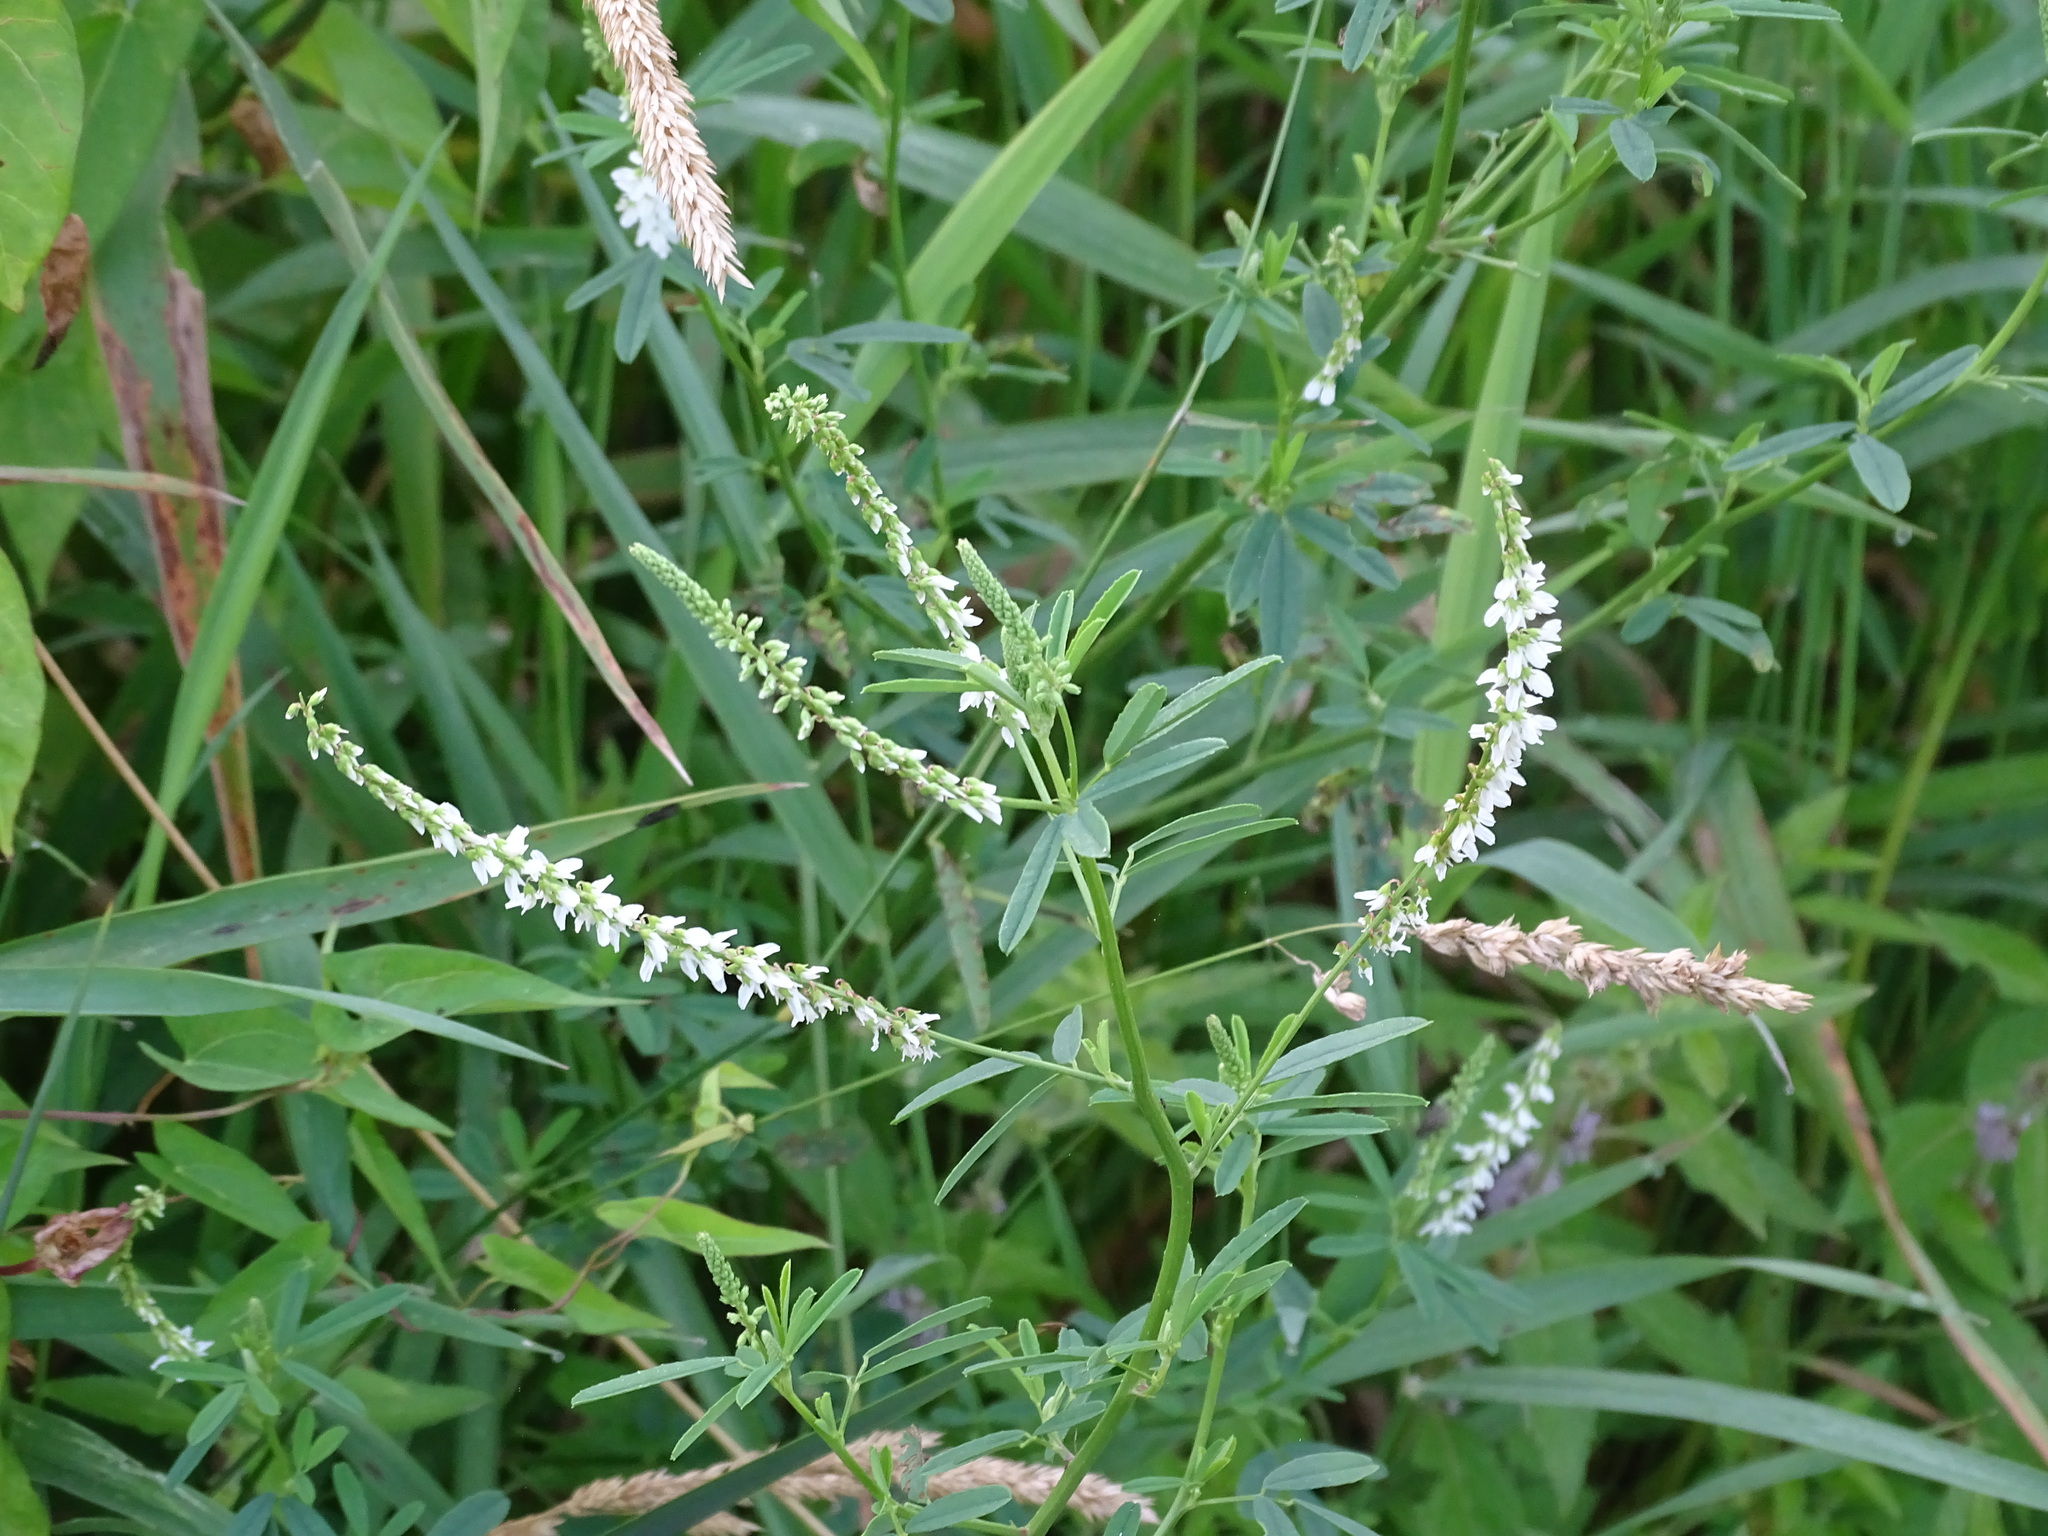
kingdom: Plantae
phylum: Tracheophyta
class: Magnoliopsida
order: Fabales
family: Fabaceae
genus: Melilotus
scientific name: Melilotus albus
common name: White melilot
